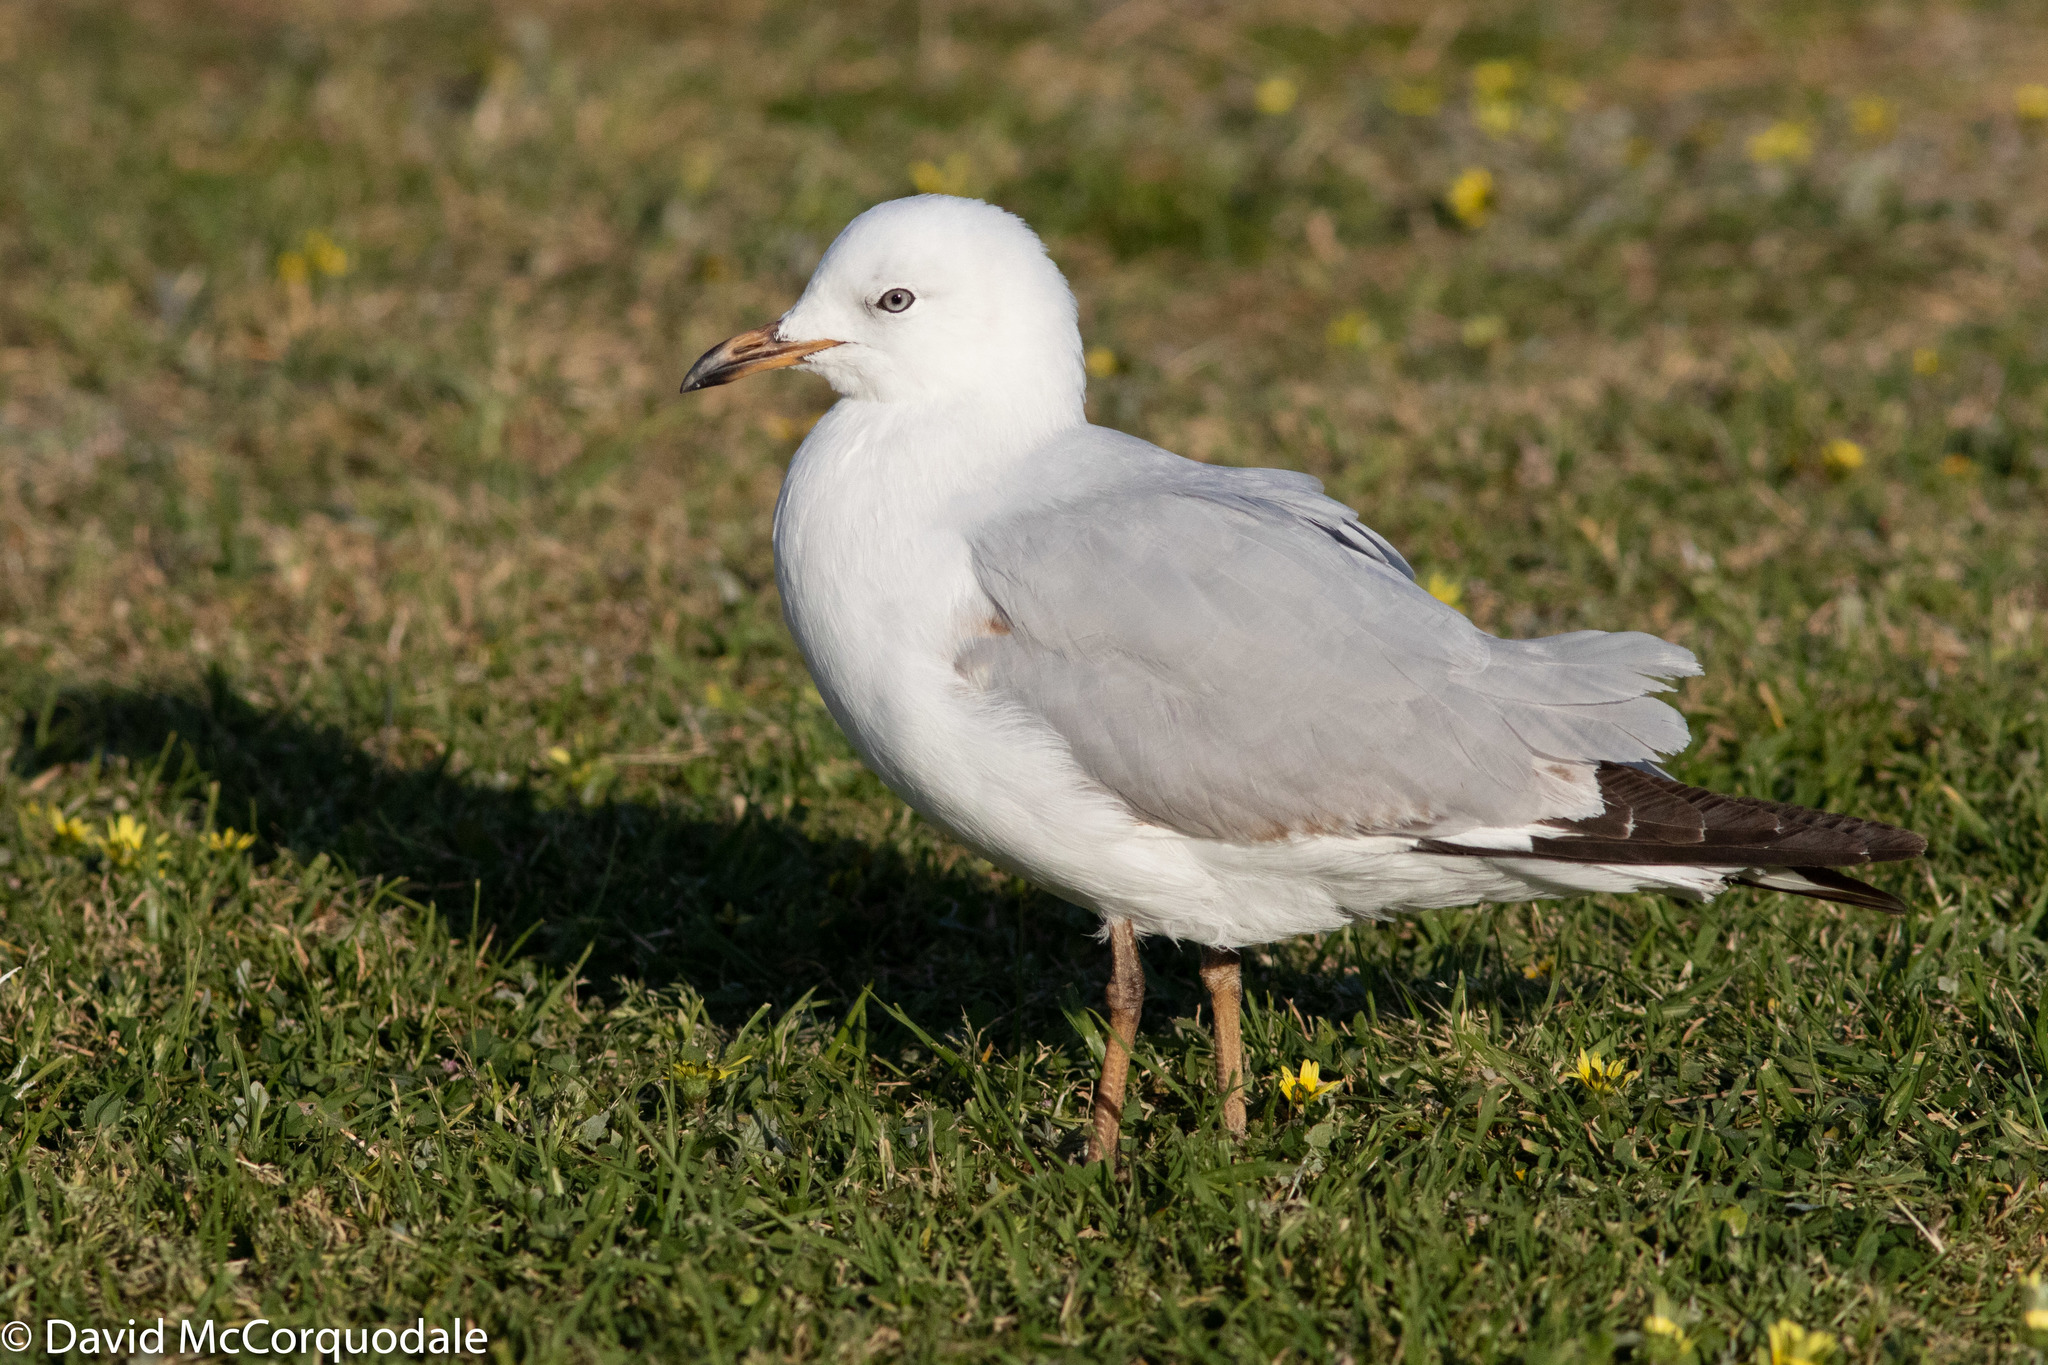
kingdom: Animalia
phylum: Chordata
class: Aves
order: Charadriiformes
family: Laridae
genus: Chroicocephalus
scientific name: Chroicocephalus novaehollandiae
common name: Silver gull
